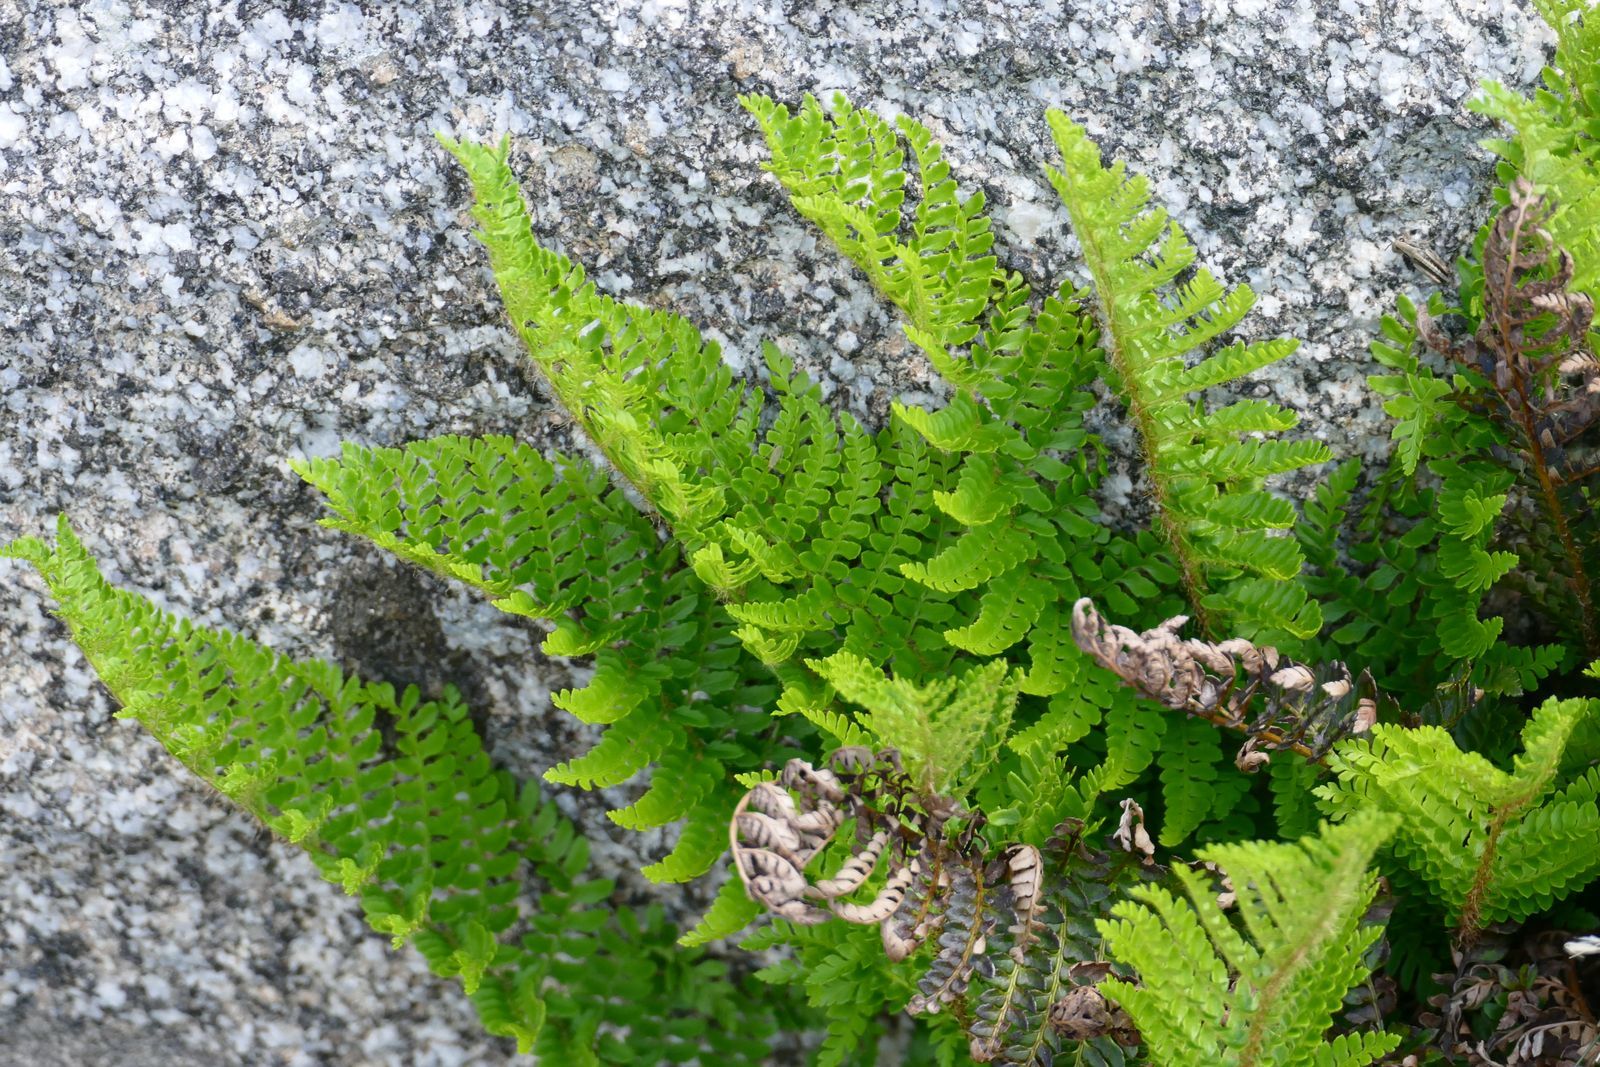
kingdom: Plantae
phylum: Tracheophyta
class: Polypodiopsida
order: Polypodiales
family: Dryopteridaceae
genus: Polystichum
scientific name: Polystichum proliferum
